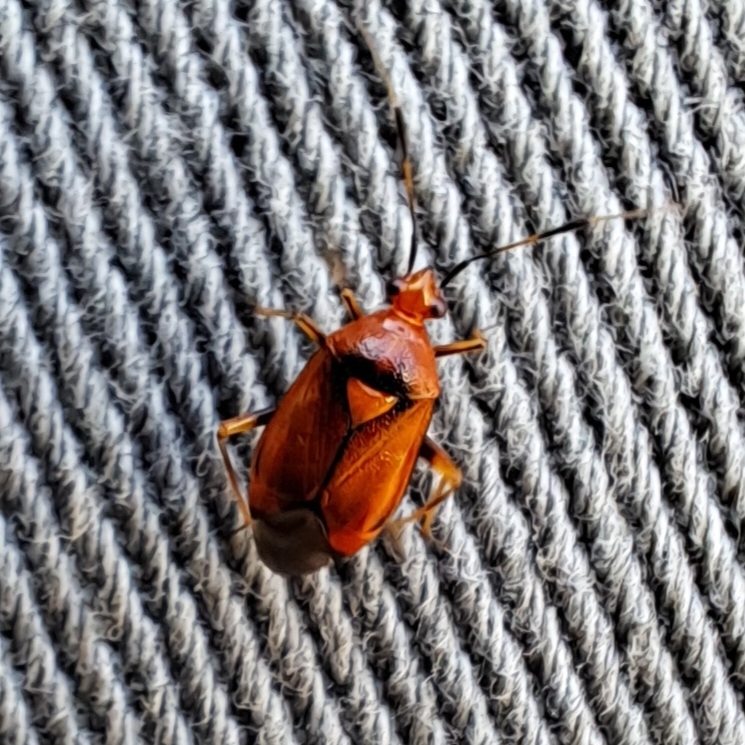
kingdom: Animalia
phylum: Arthropoda
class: Insecta
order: Hemiptera
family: Miridae
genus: Deraeocoris
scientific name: Deraeocoris ruber
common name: Plant bug
